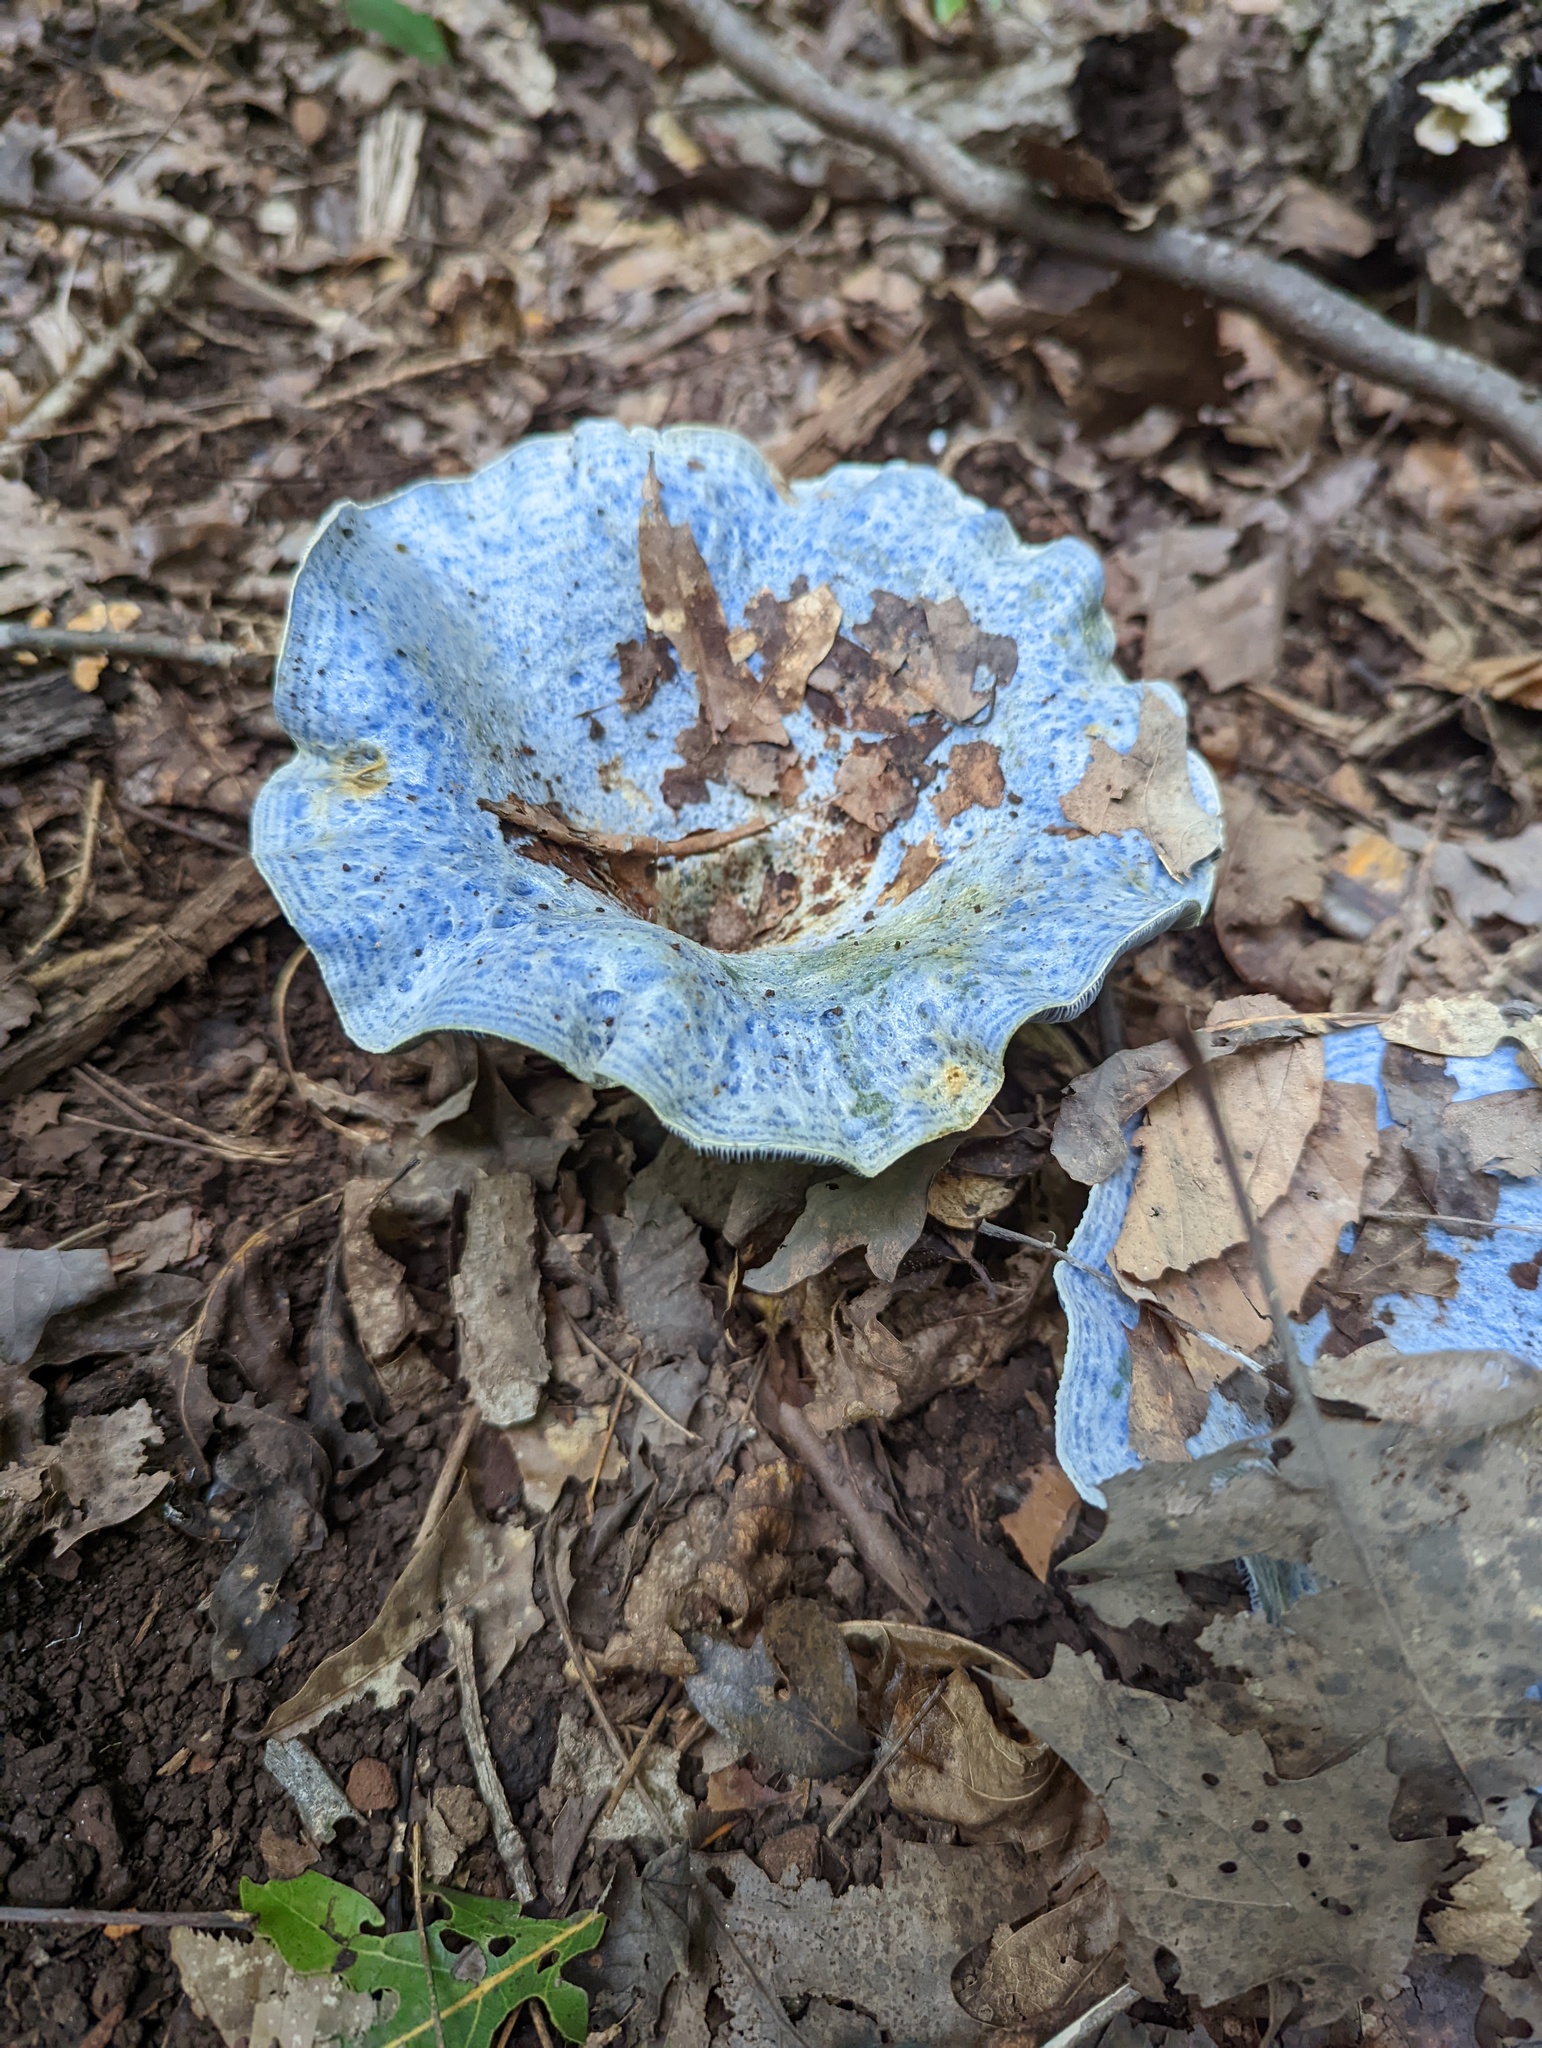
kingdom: Fungi
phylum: Basidiomycota
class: Agaricomycetes
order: Russulales
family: Russulaceae
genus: Lactarius
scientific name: Lactarius indigo
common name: Indigo milk cap
